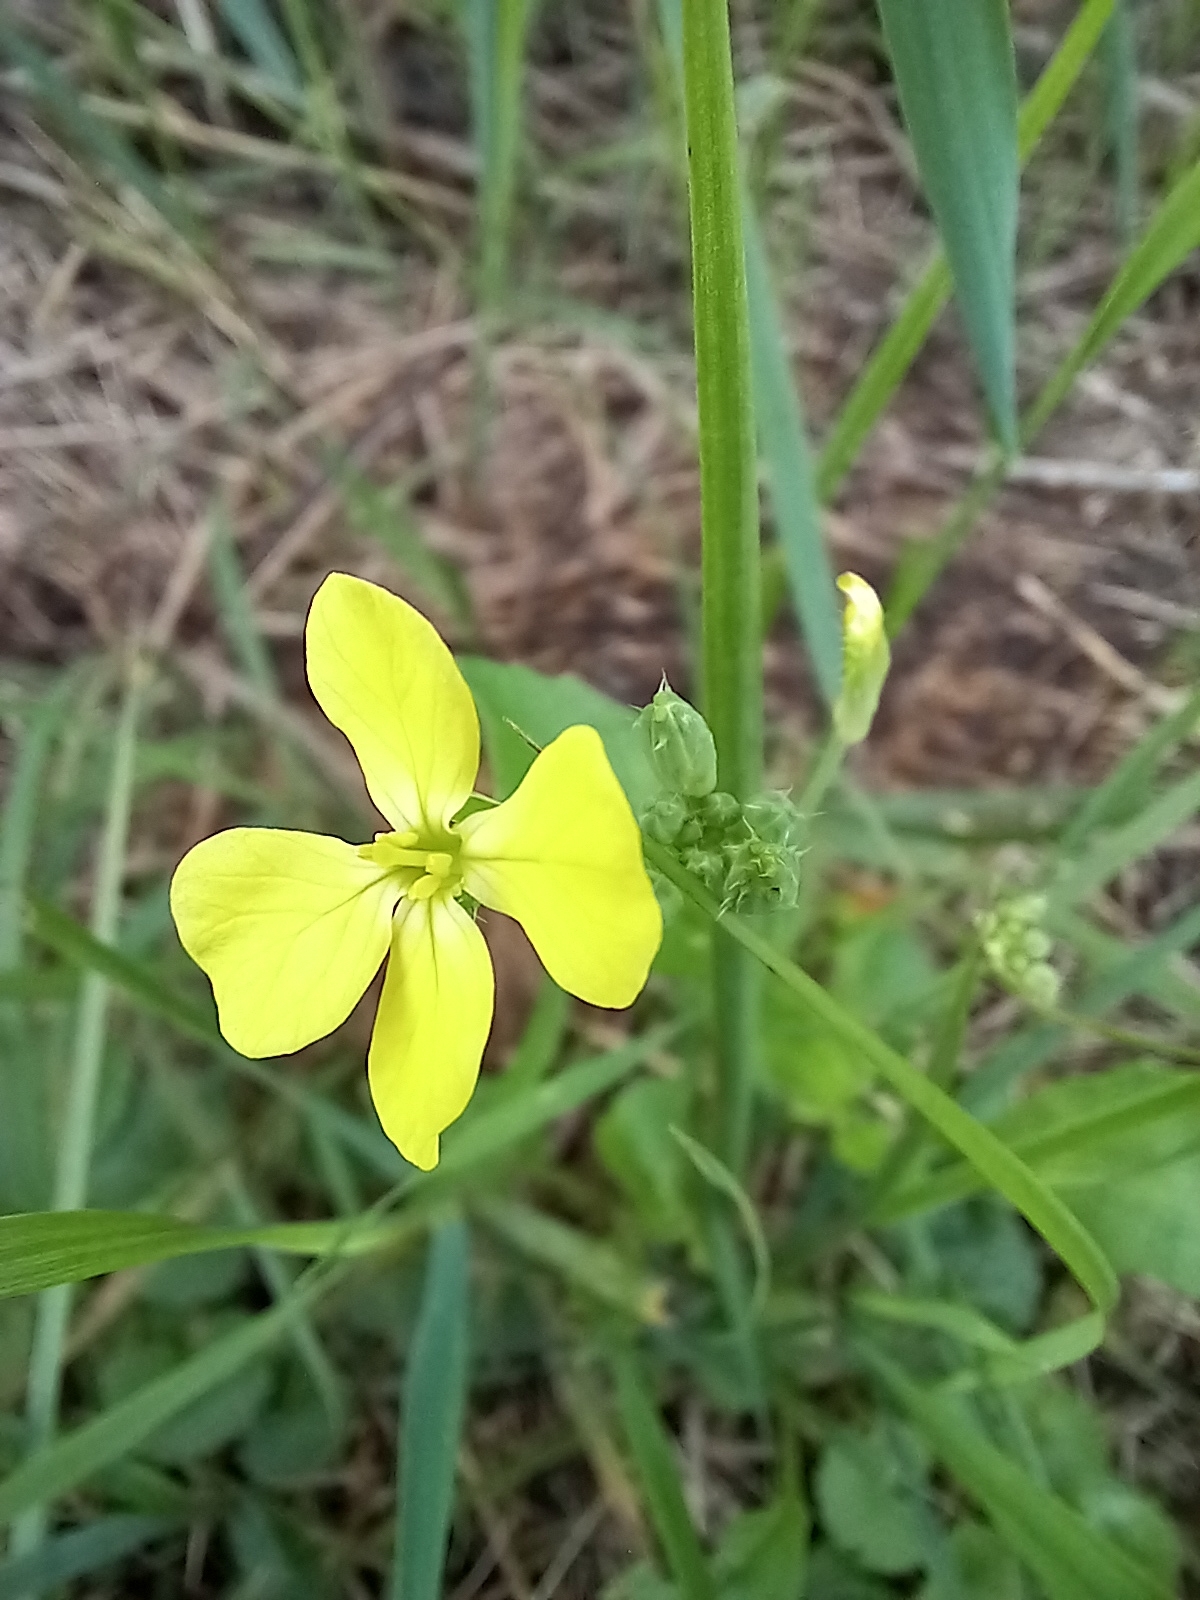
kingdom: Plantae
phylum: Tracheophyta
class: Magnoliopsida
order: Brassicales
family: Brassicaceae
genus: Raphanus
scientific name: Raphanus raphanistrum
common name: Wild radish
